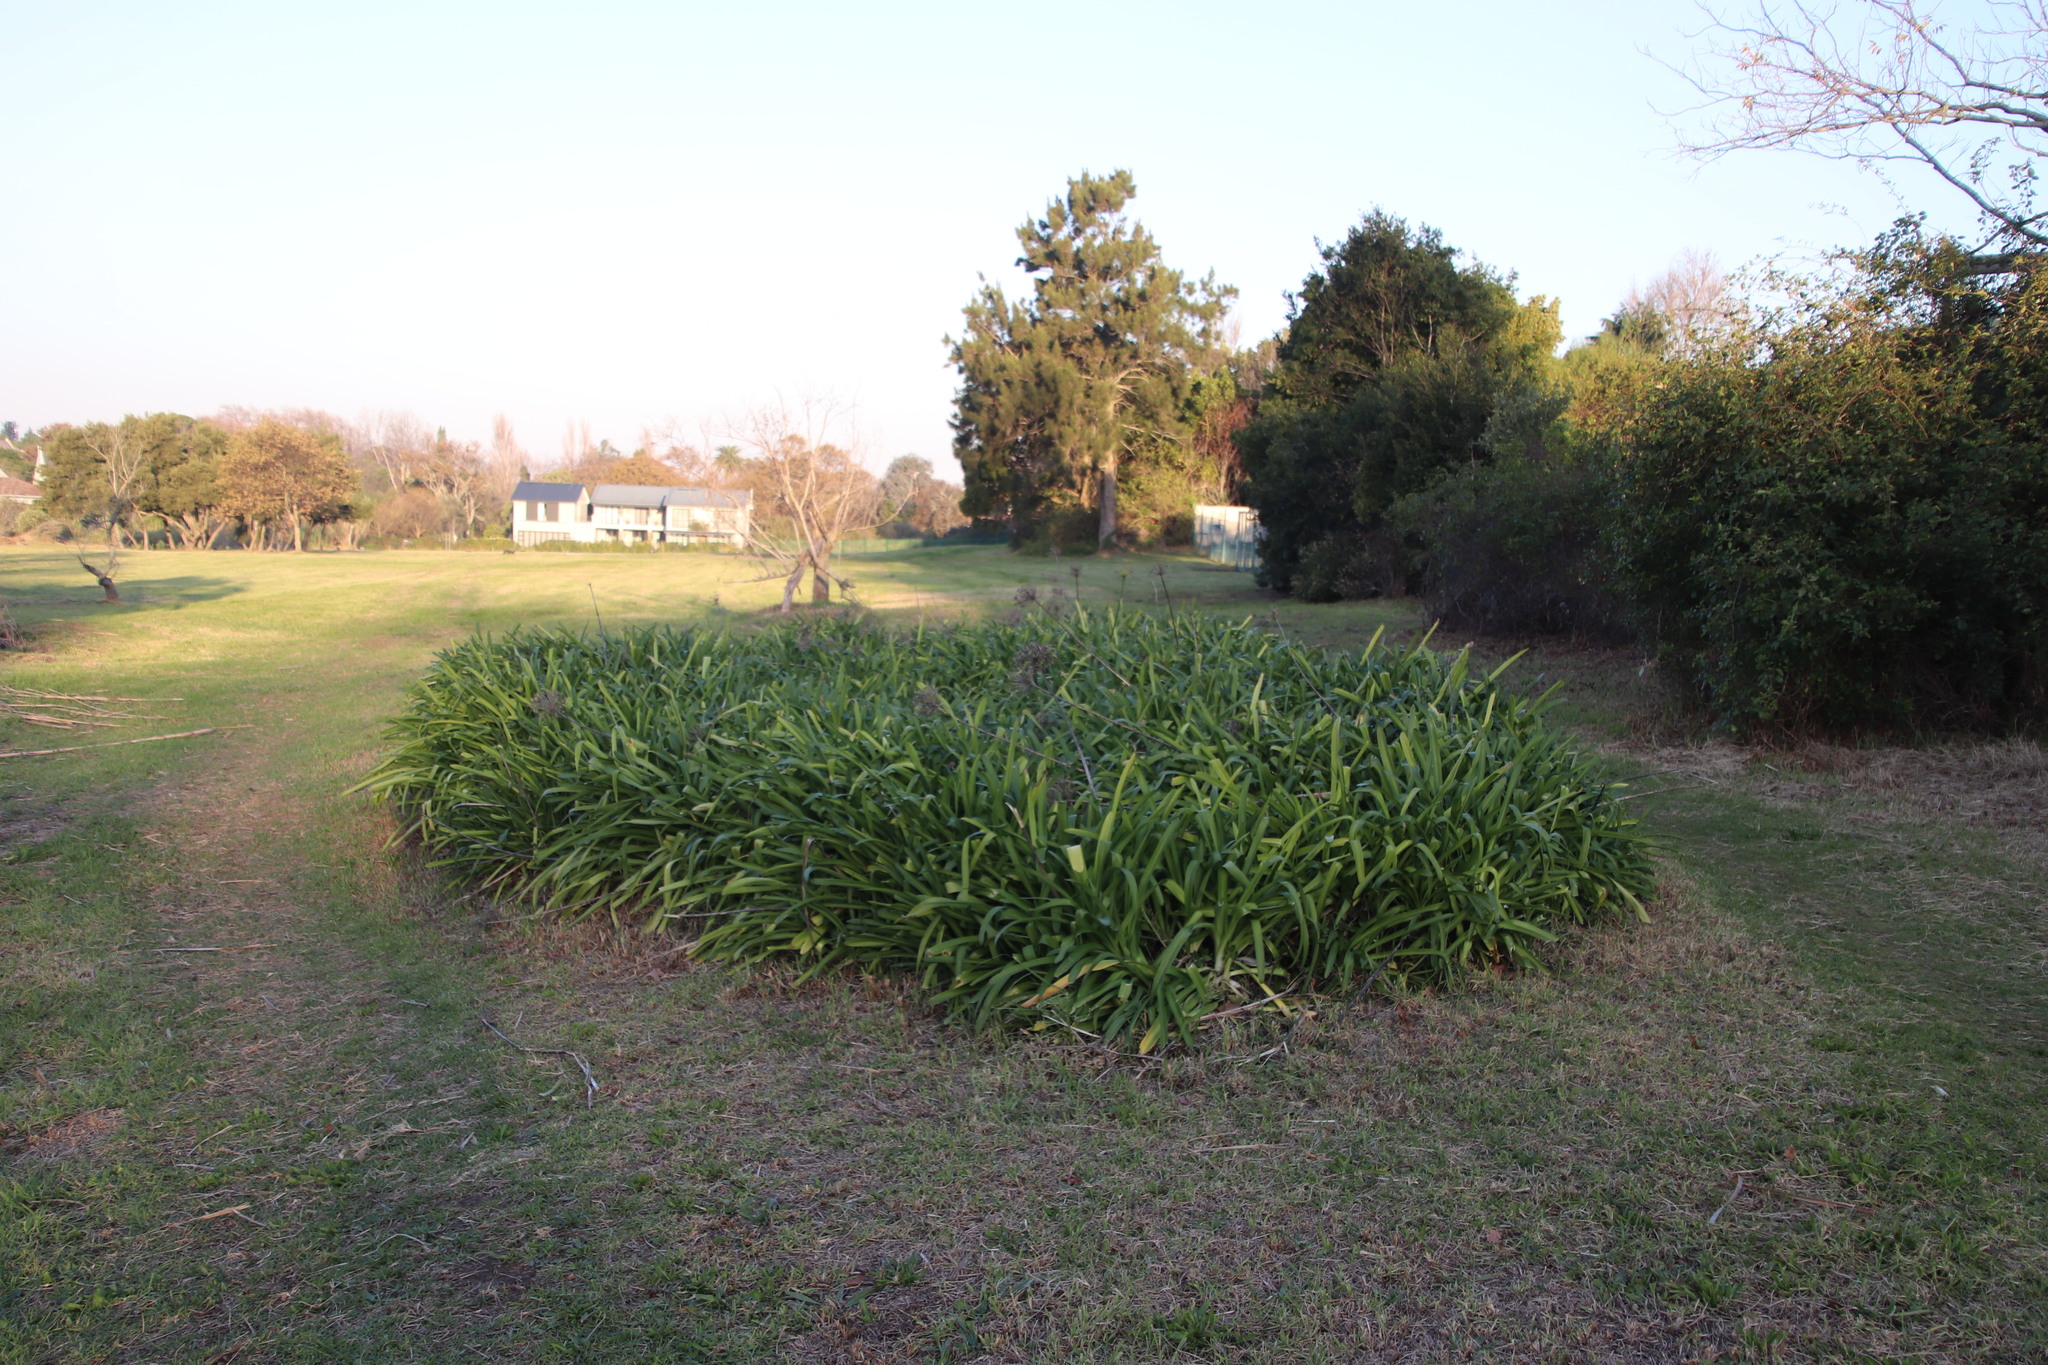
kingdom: Plantae
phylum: Tracheophyta
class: Liliopsida
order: Asparagales
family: Amaryllidaceae
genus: Agapanthus
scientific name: Agapanthus praecox
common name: African-lily
